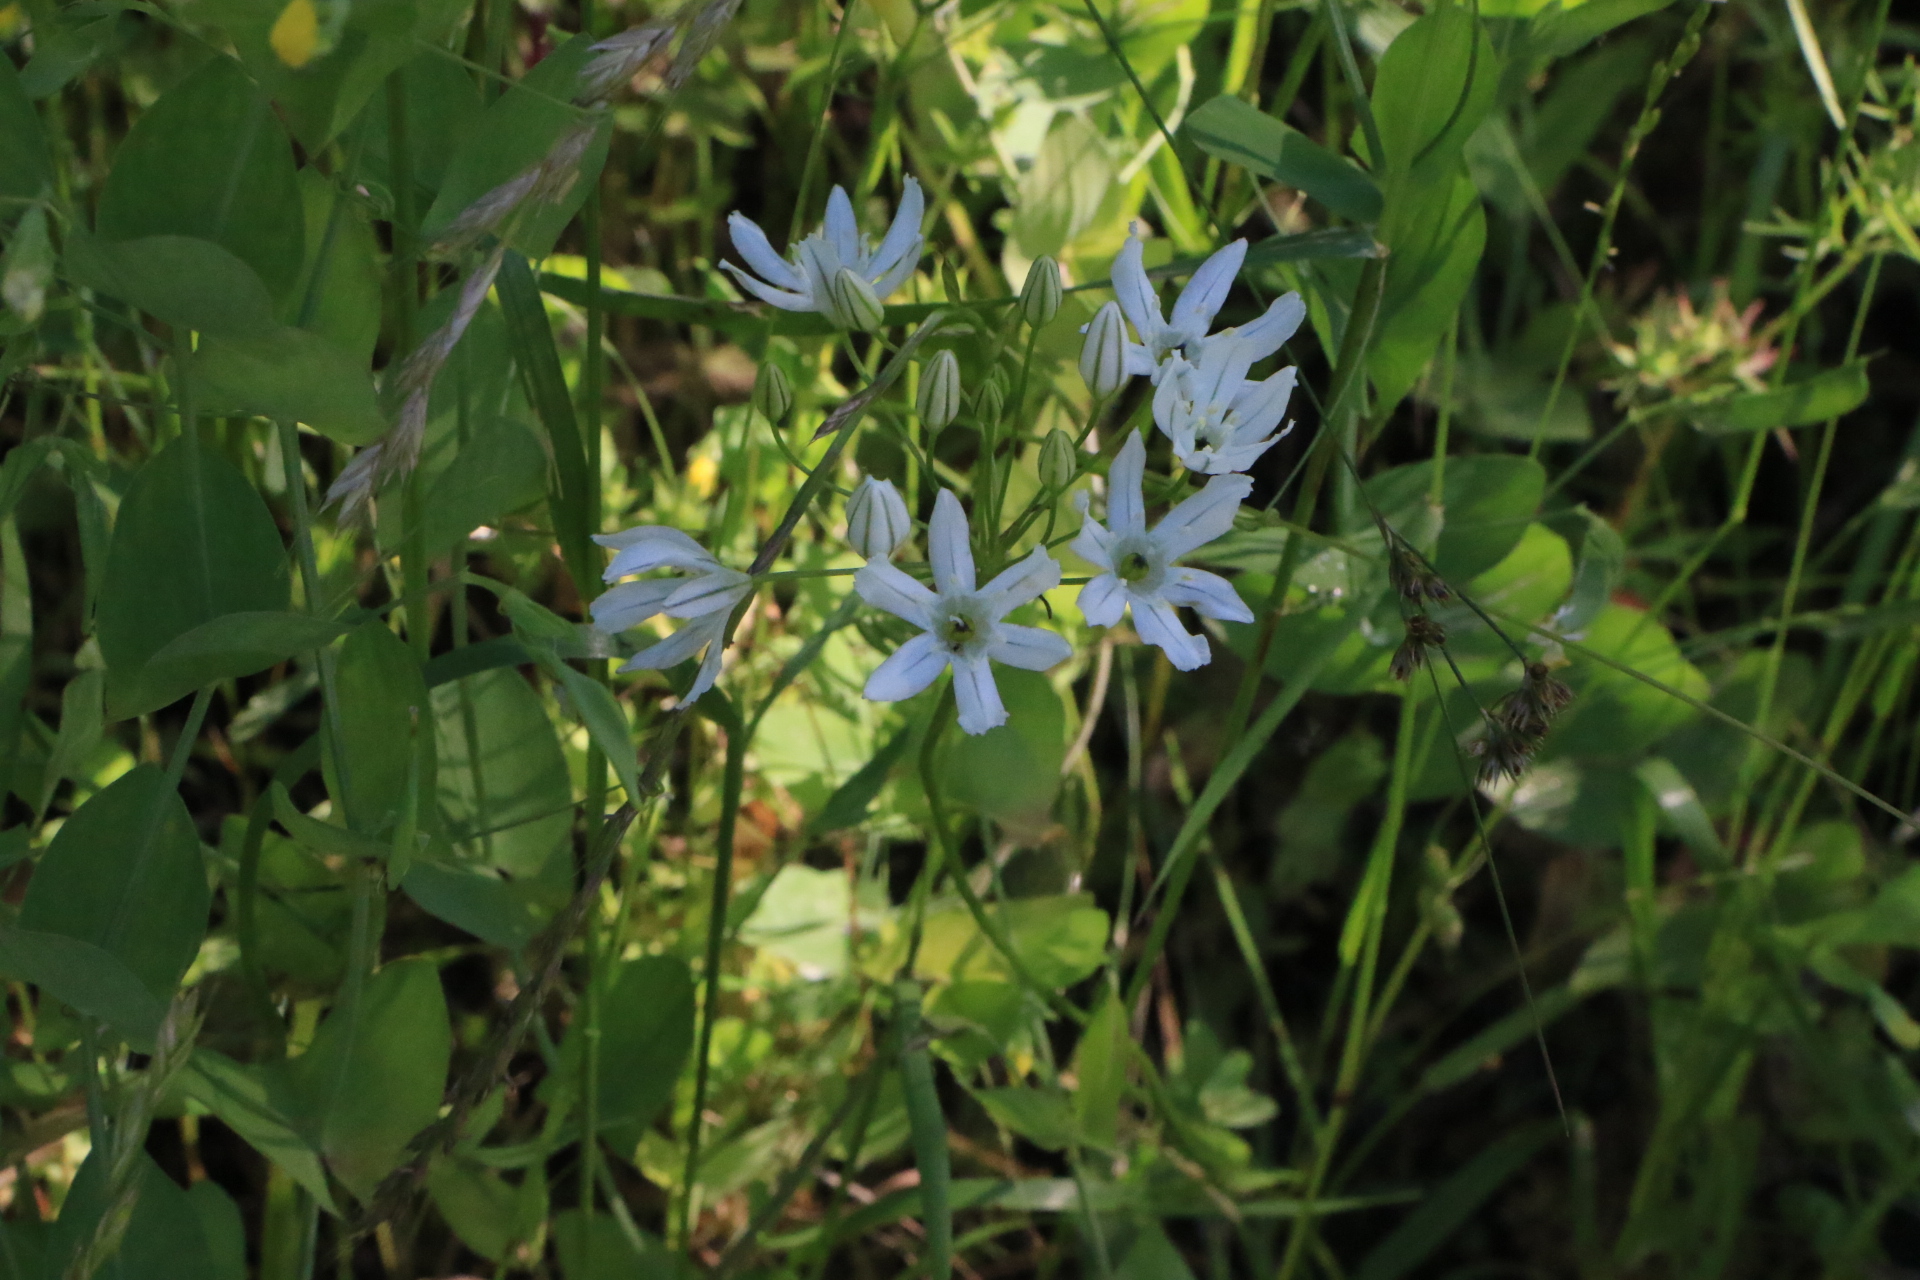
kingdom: Plantae
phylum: Tracheophyta
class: Liliopsida
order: Asparagales
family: Asparagaceae
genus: Triteleia
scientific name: Triteleia hyacinthina
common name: White brodiaea
